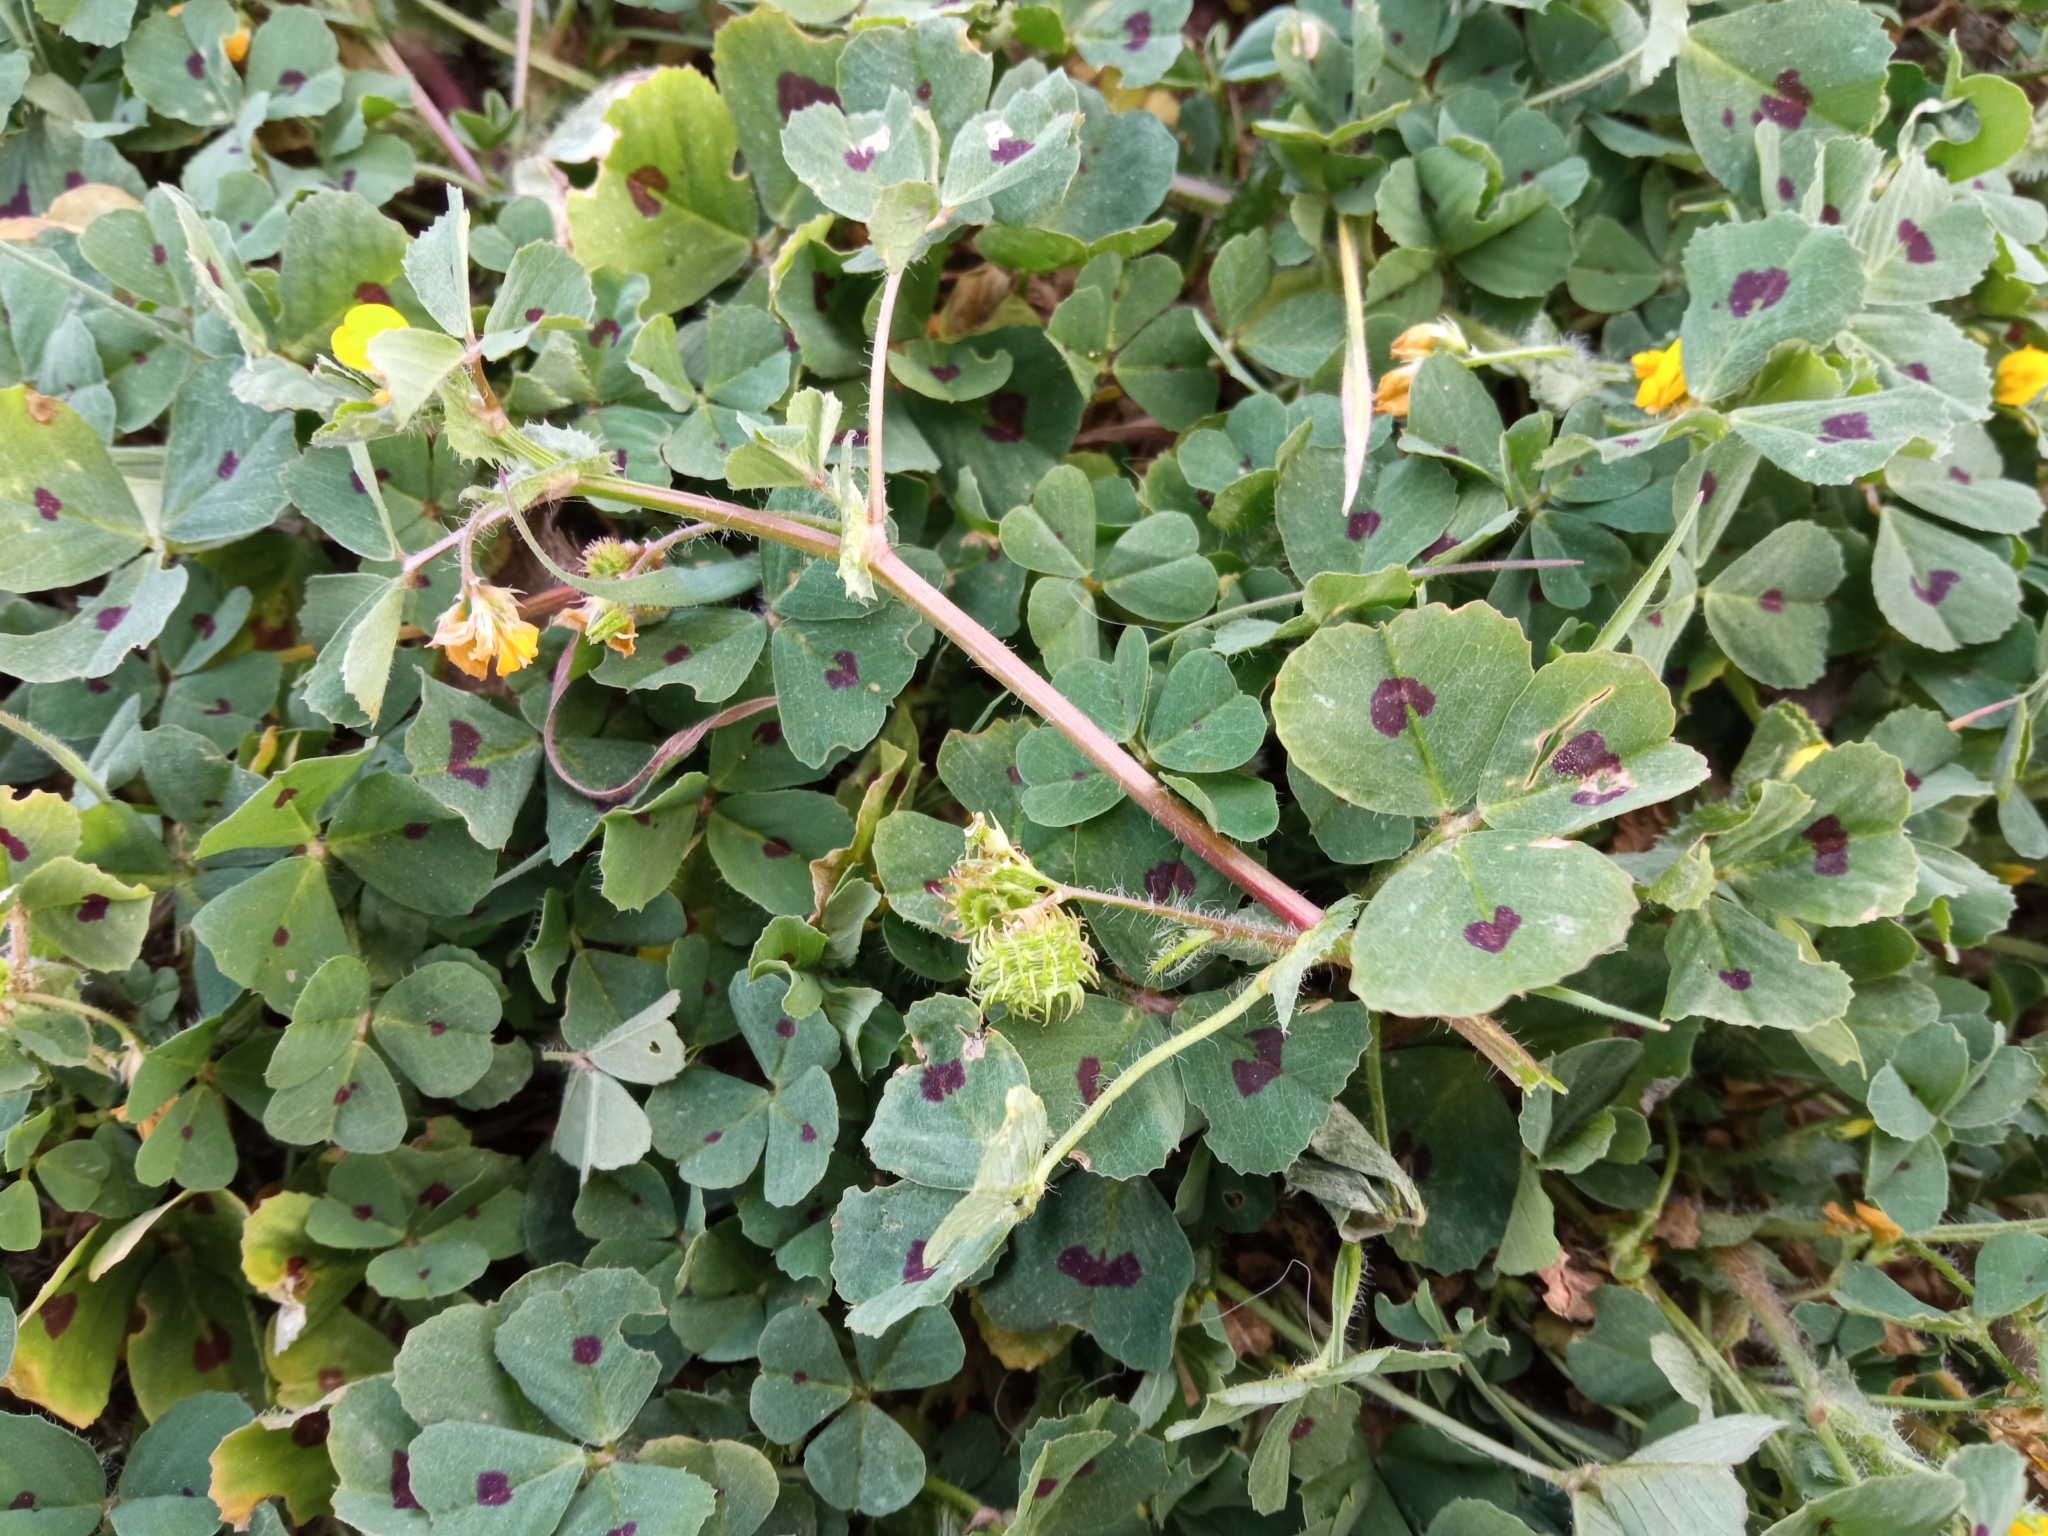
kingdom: Plantae
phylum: Tracheophyta
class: Magnoliopsida
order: Fabales
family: Fabaceae
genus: Medicago
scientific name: Medicago arabica
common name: Spotted medick
